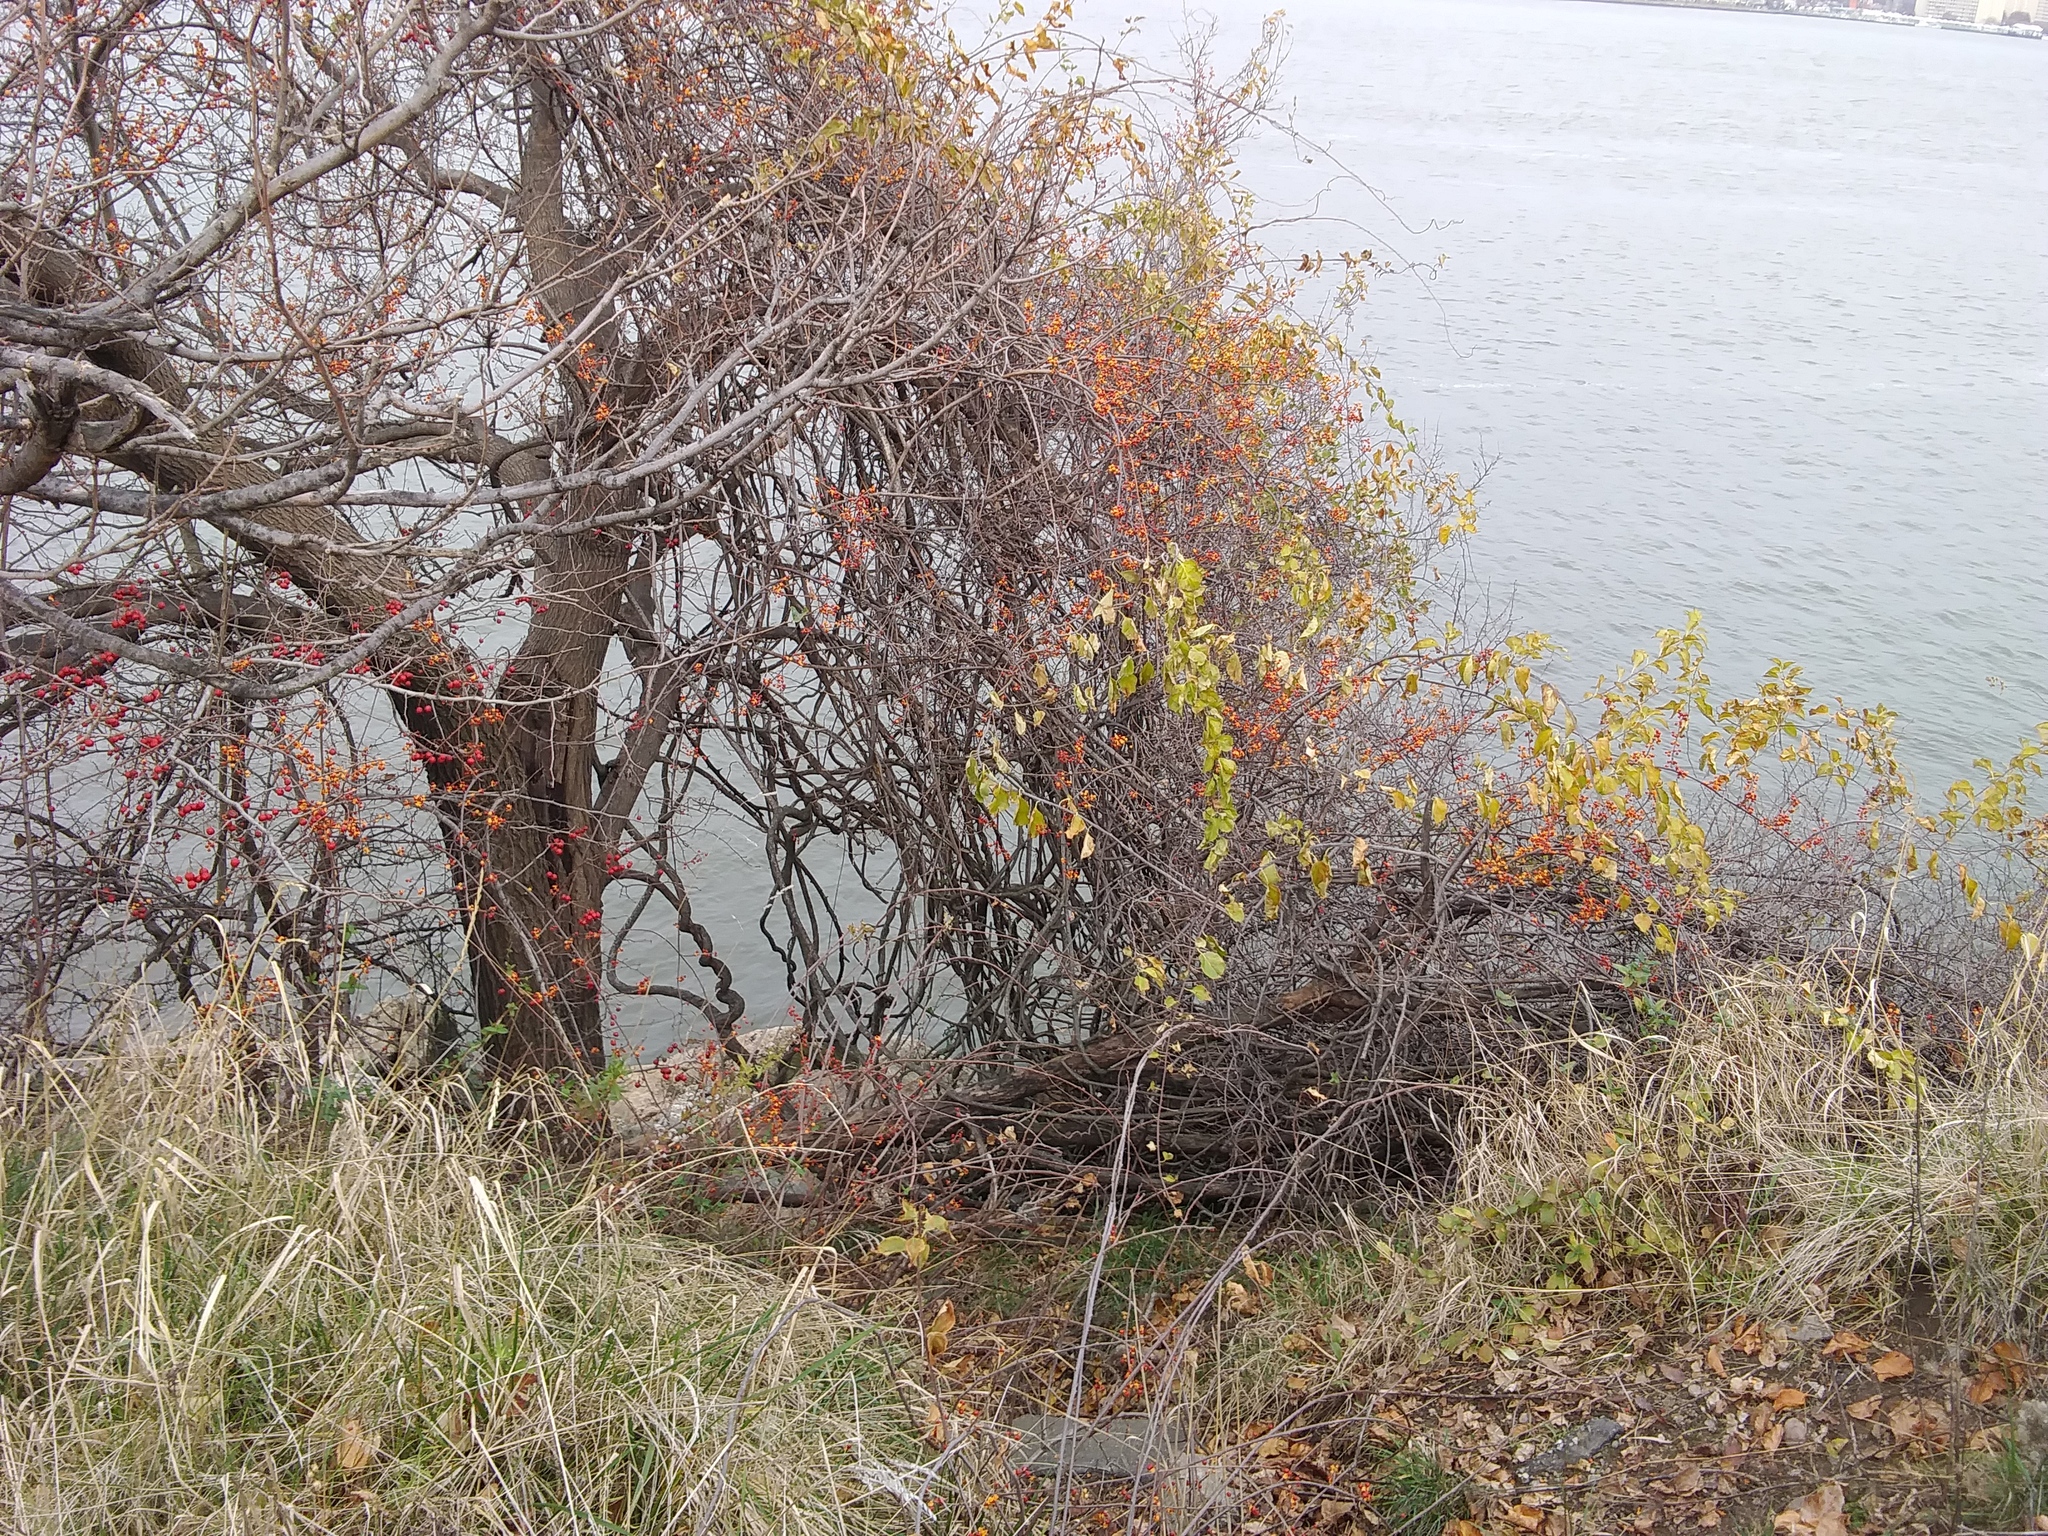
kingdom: Plantae
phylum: Tracheophyta
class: Magnoliopsida
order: Celastrales
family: Celastraceae
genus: Celastrus
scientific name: Celastrus orbiculatus
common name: Oriental bittersweet
